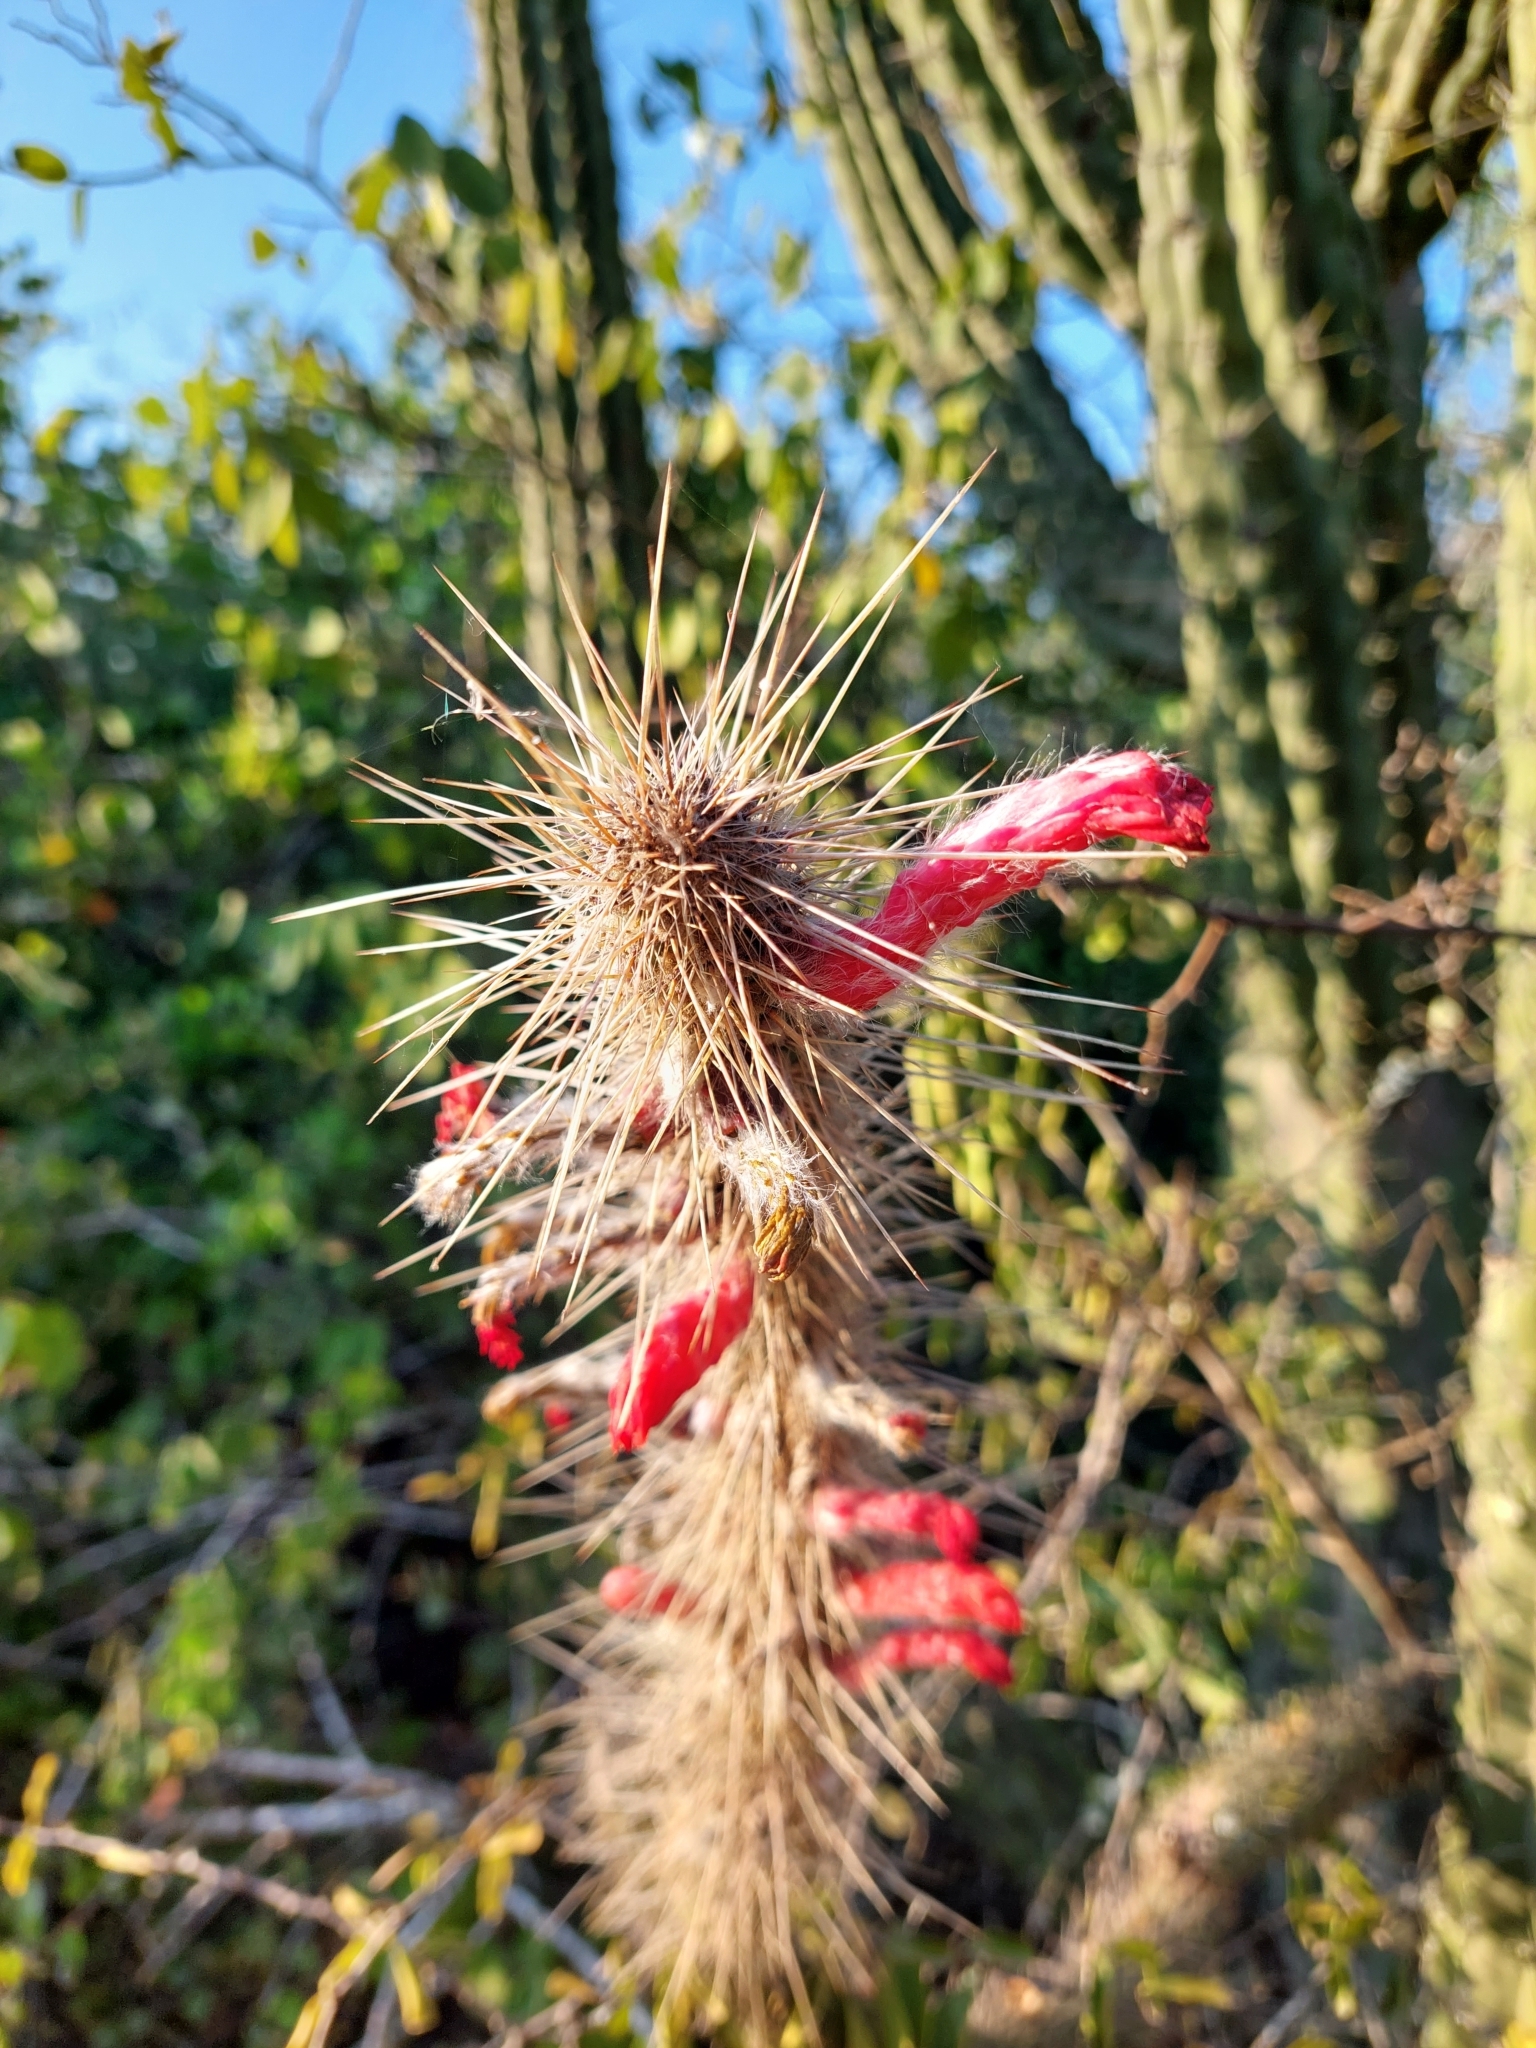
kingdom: Plantae
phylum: Tracheophyta
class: Magnoliopsida
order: Caryophyllales
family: Cactaceae
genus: Cleistocactus
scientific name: Cleistocactus baumannii
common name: Scarlet-bugler
